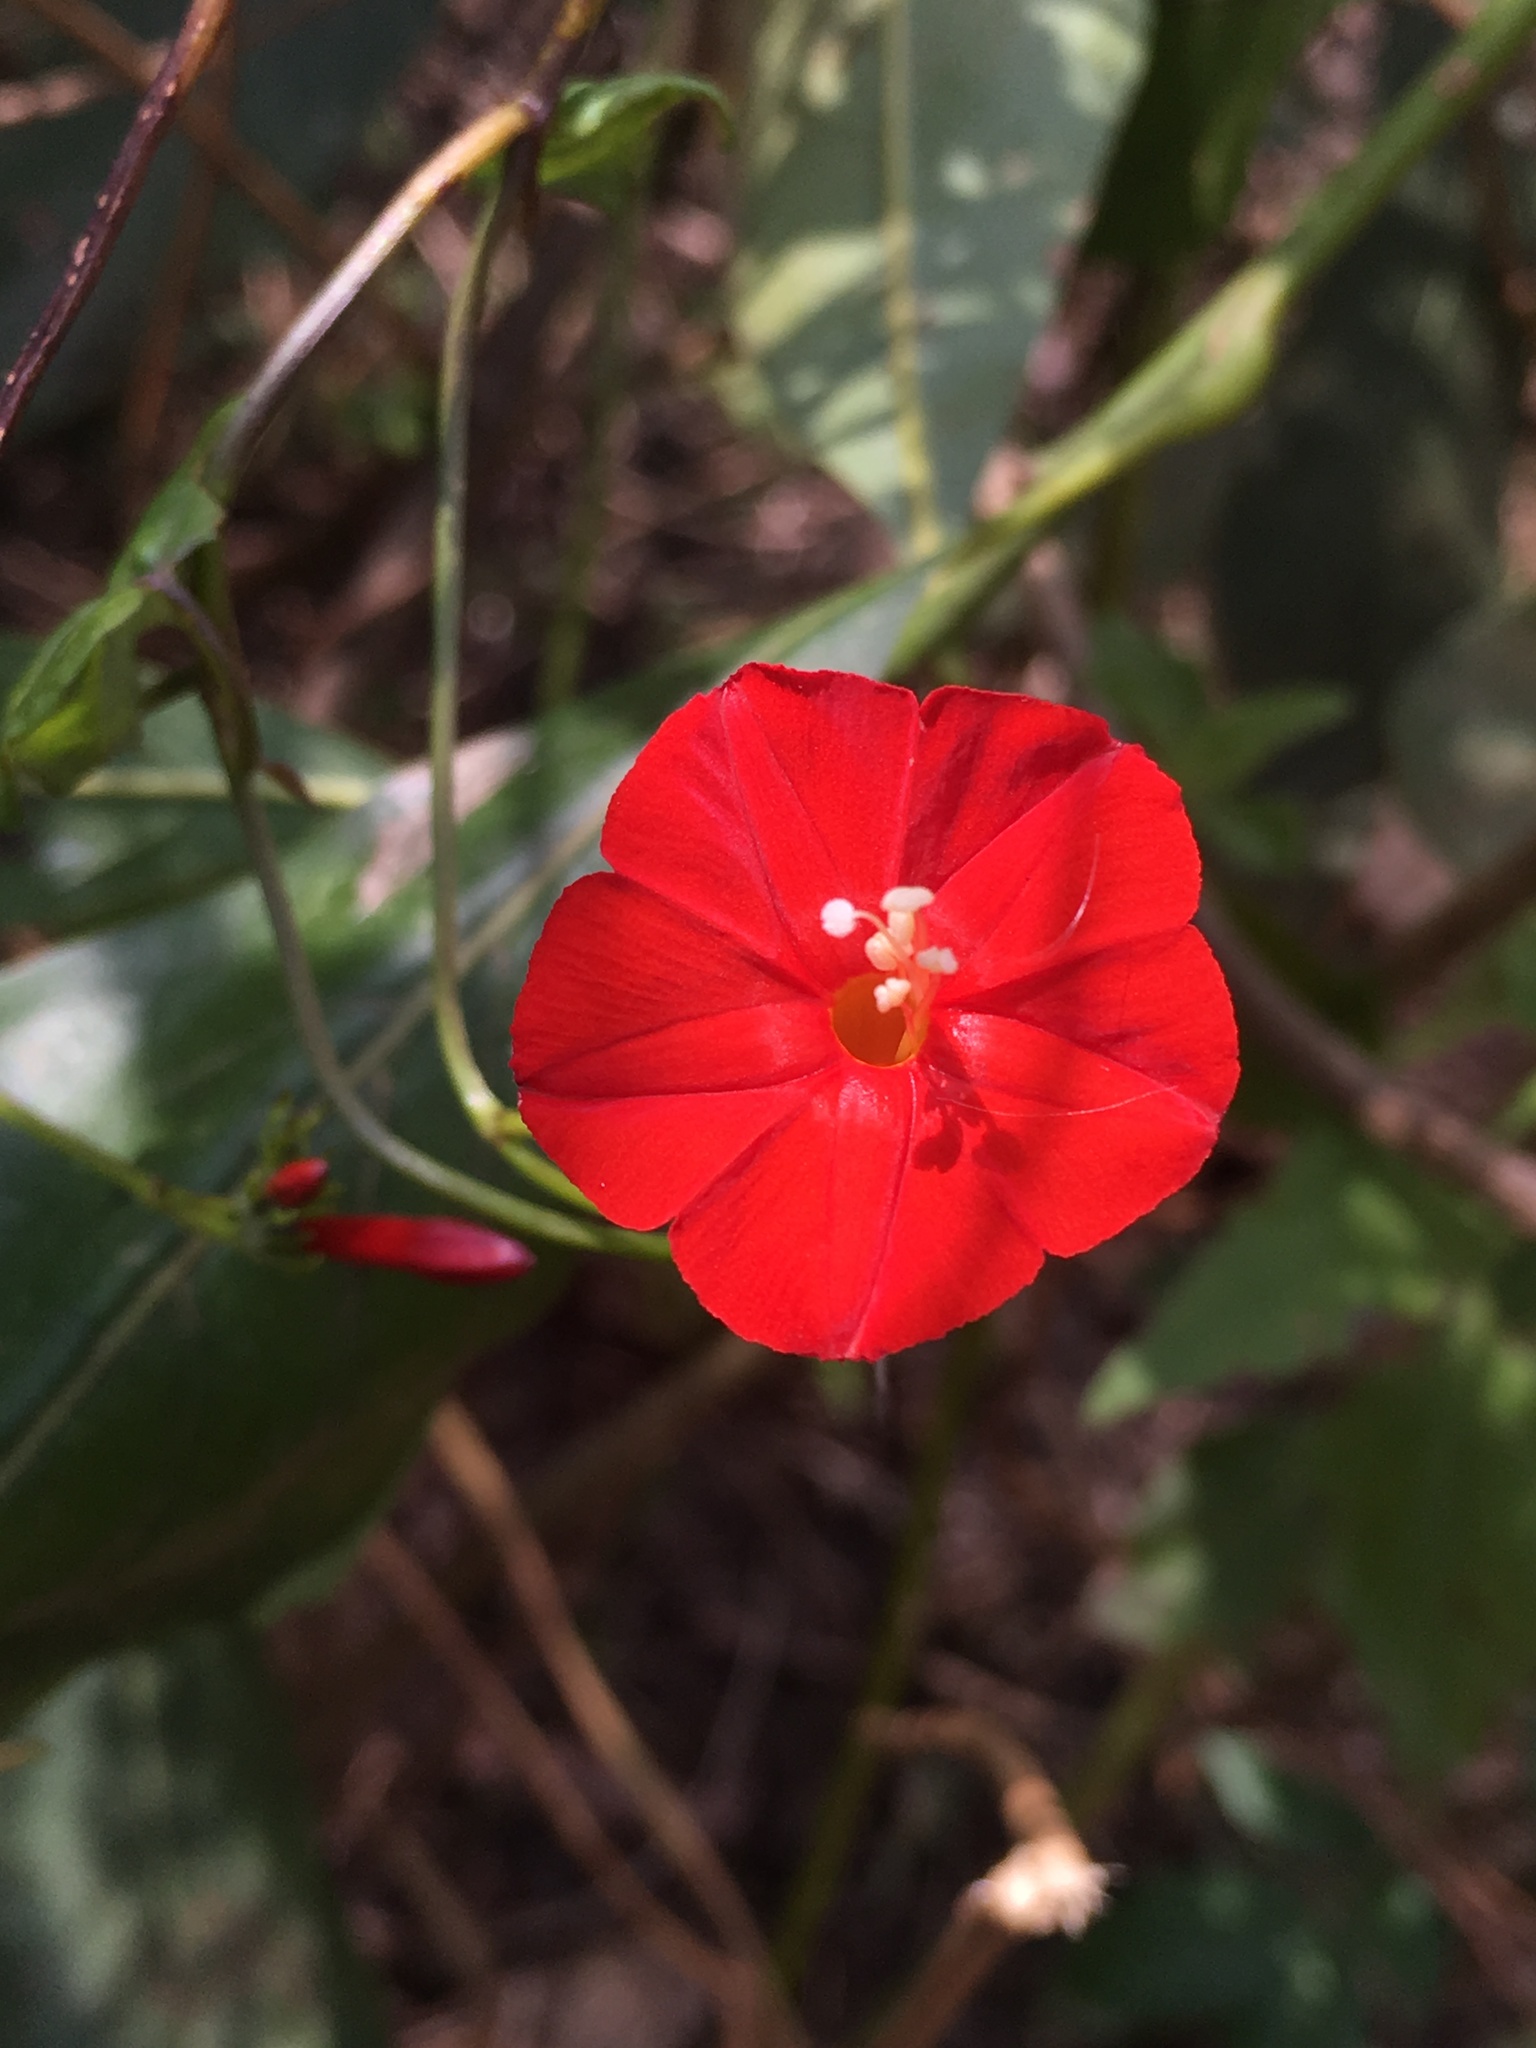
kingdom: Plantae
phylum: Tracheophyta
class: Magnoliopsida
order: Solanales
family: Convolvulaceae
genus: Ipomoea
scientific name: Ipomoea hederifolia
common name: Ivy-leaf morning-glory
